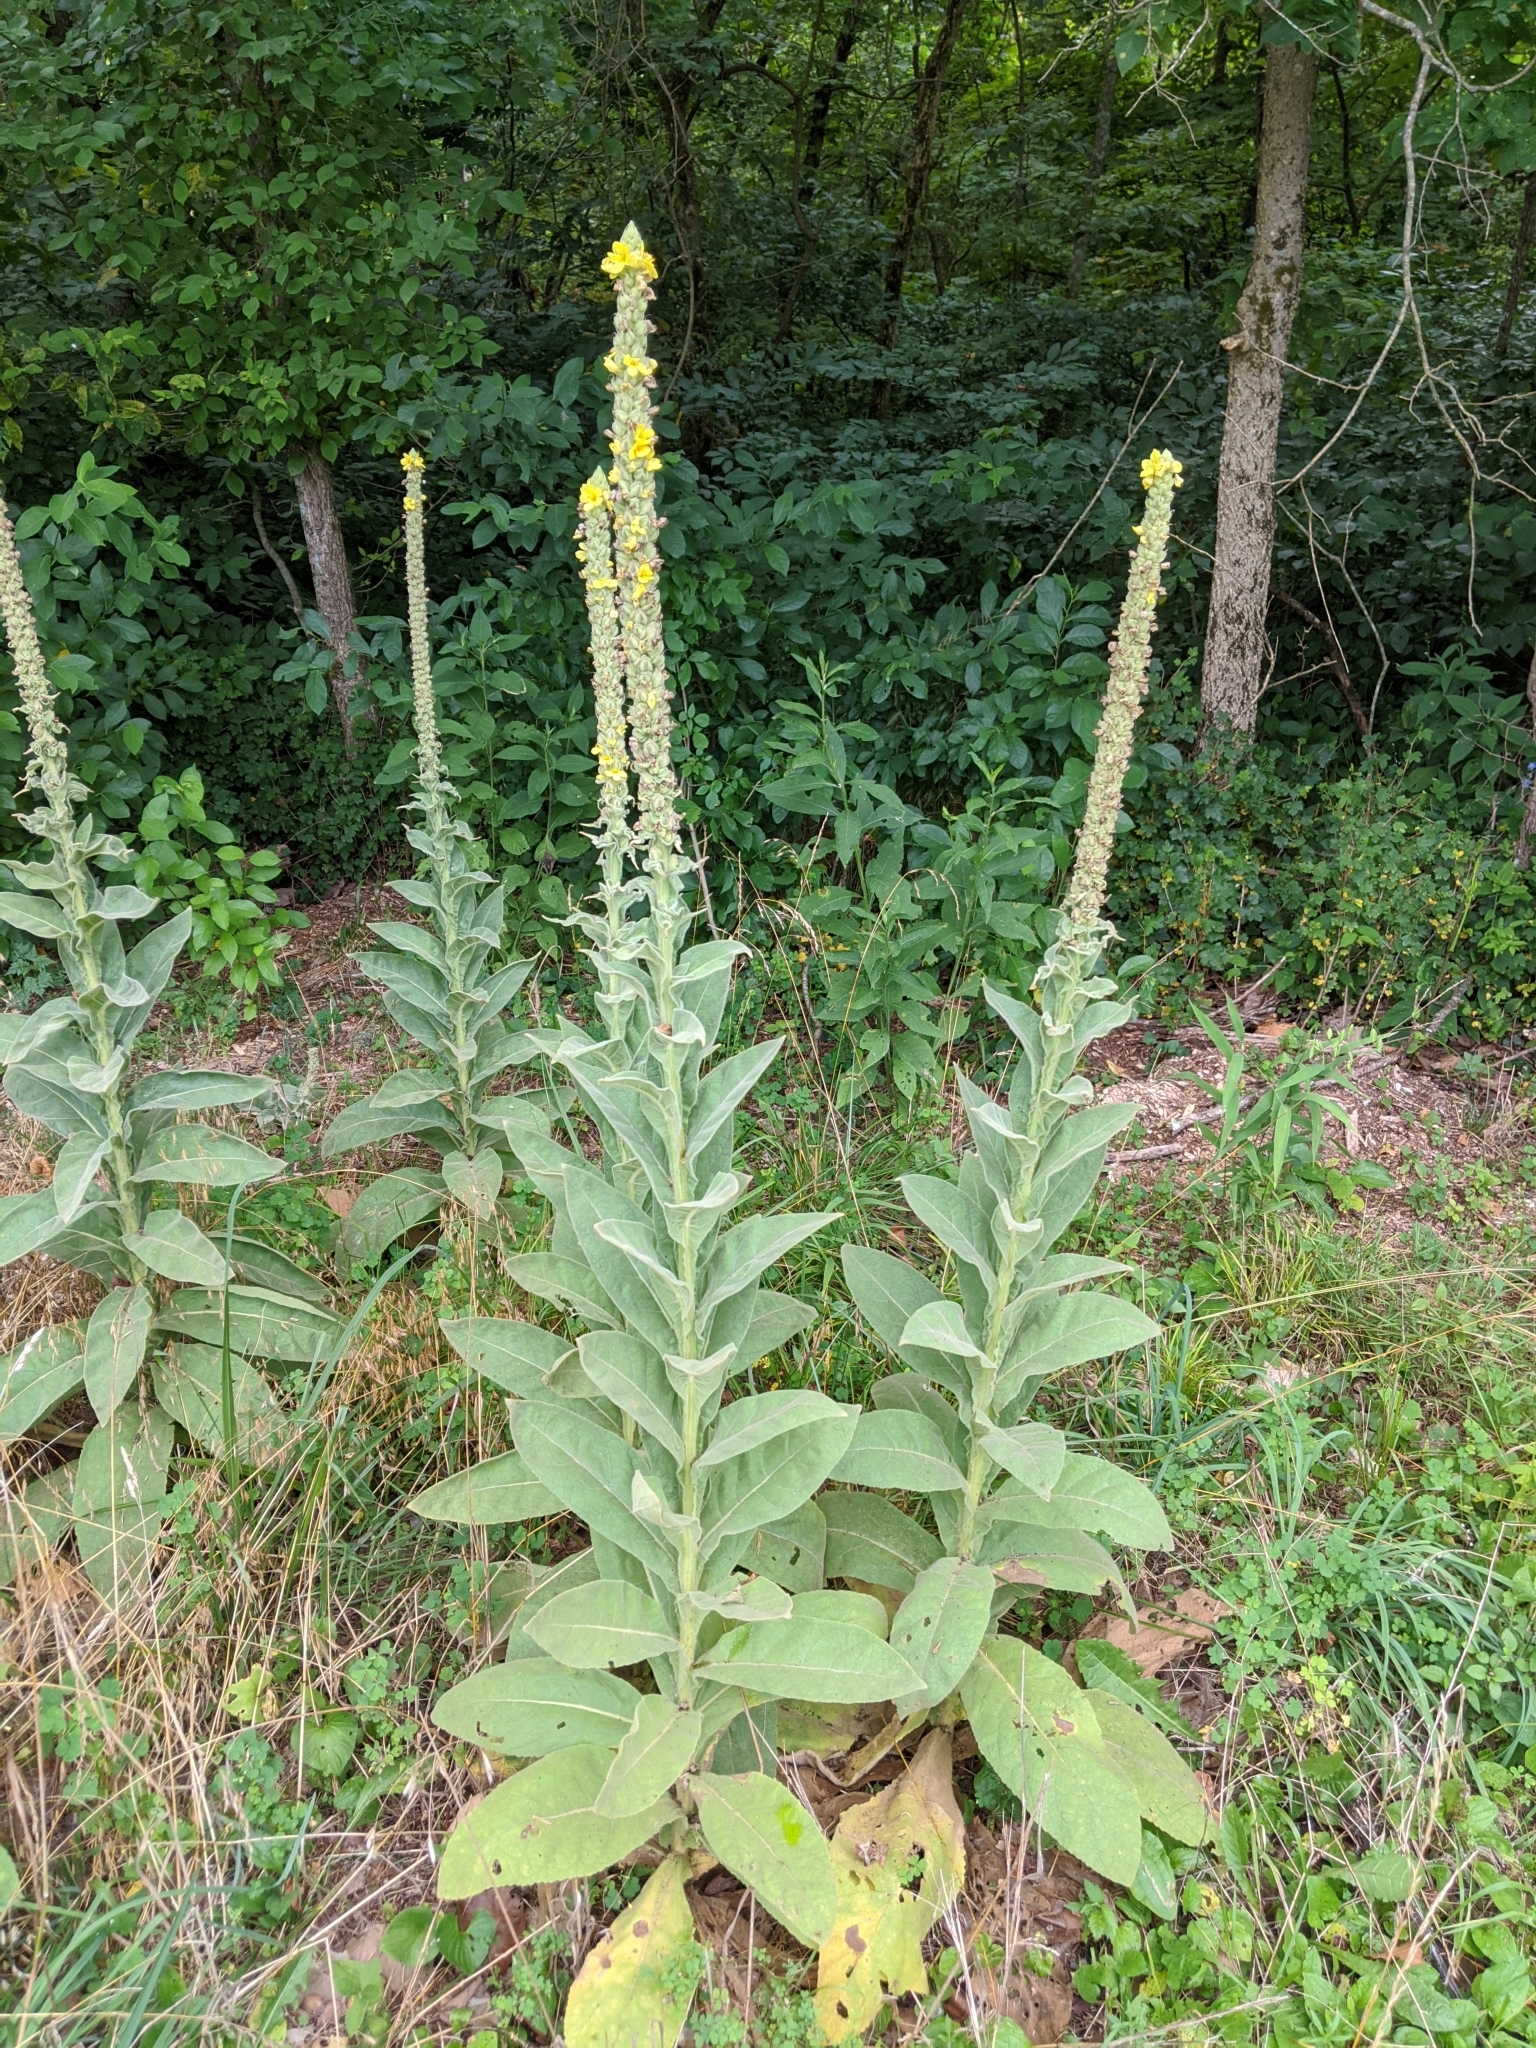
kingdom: Plantae
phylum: Tracheophyta
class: Magnoliopsida
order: Lamiales
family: Scrophulariaceae
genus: Verbascum
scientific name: Verbascum thapsus
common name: Common mullein
